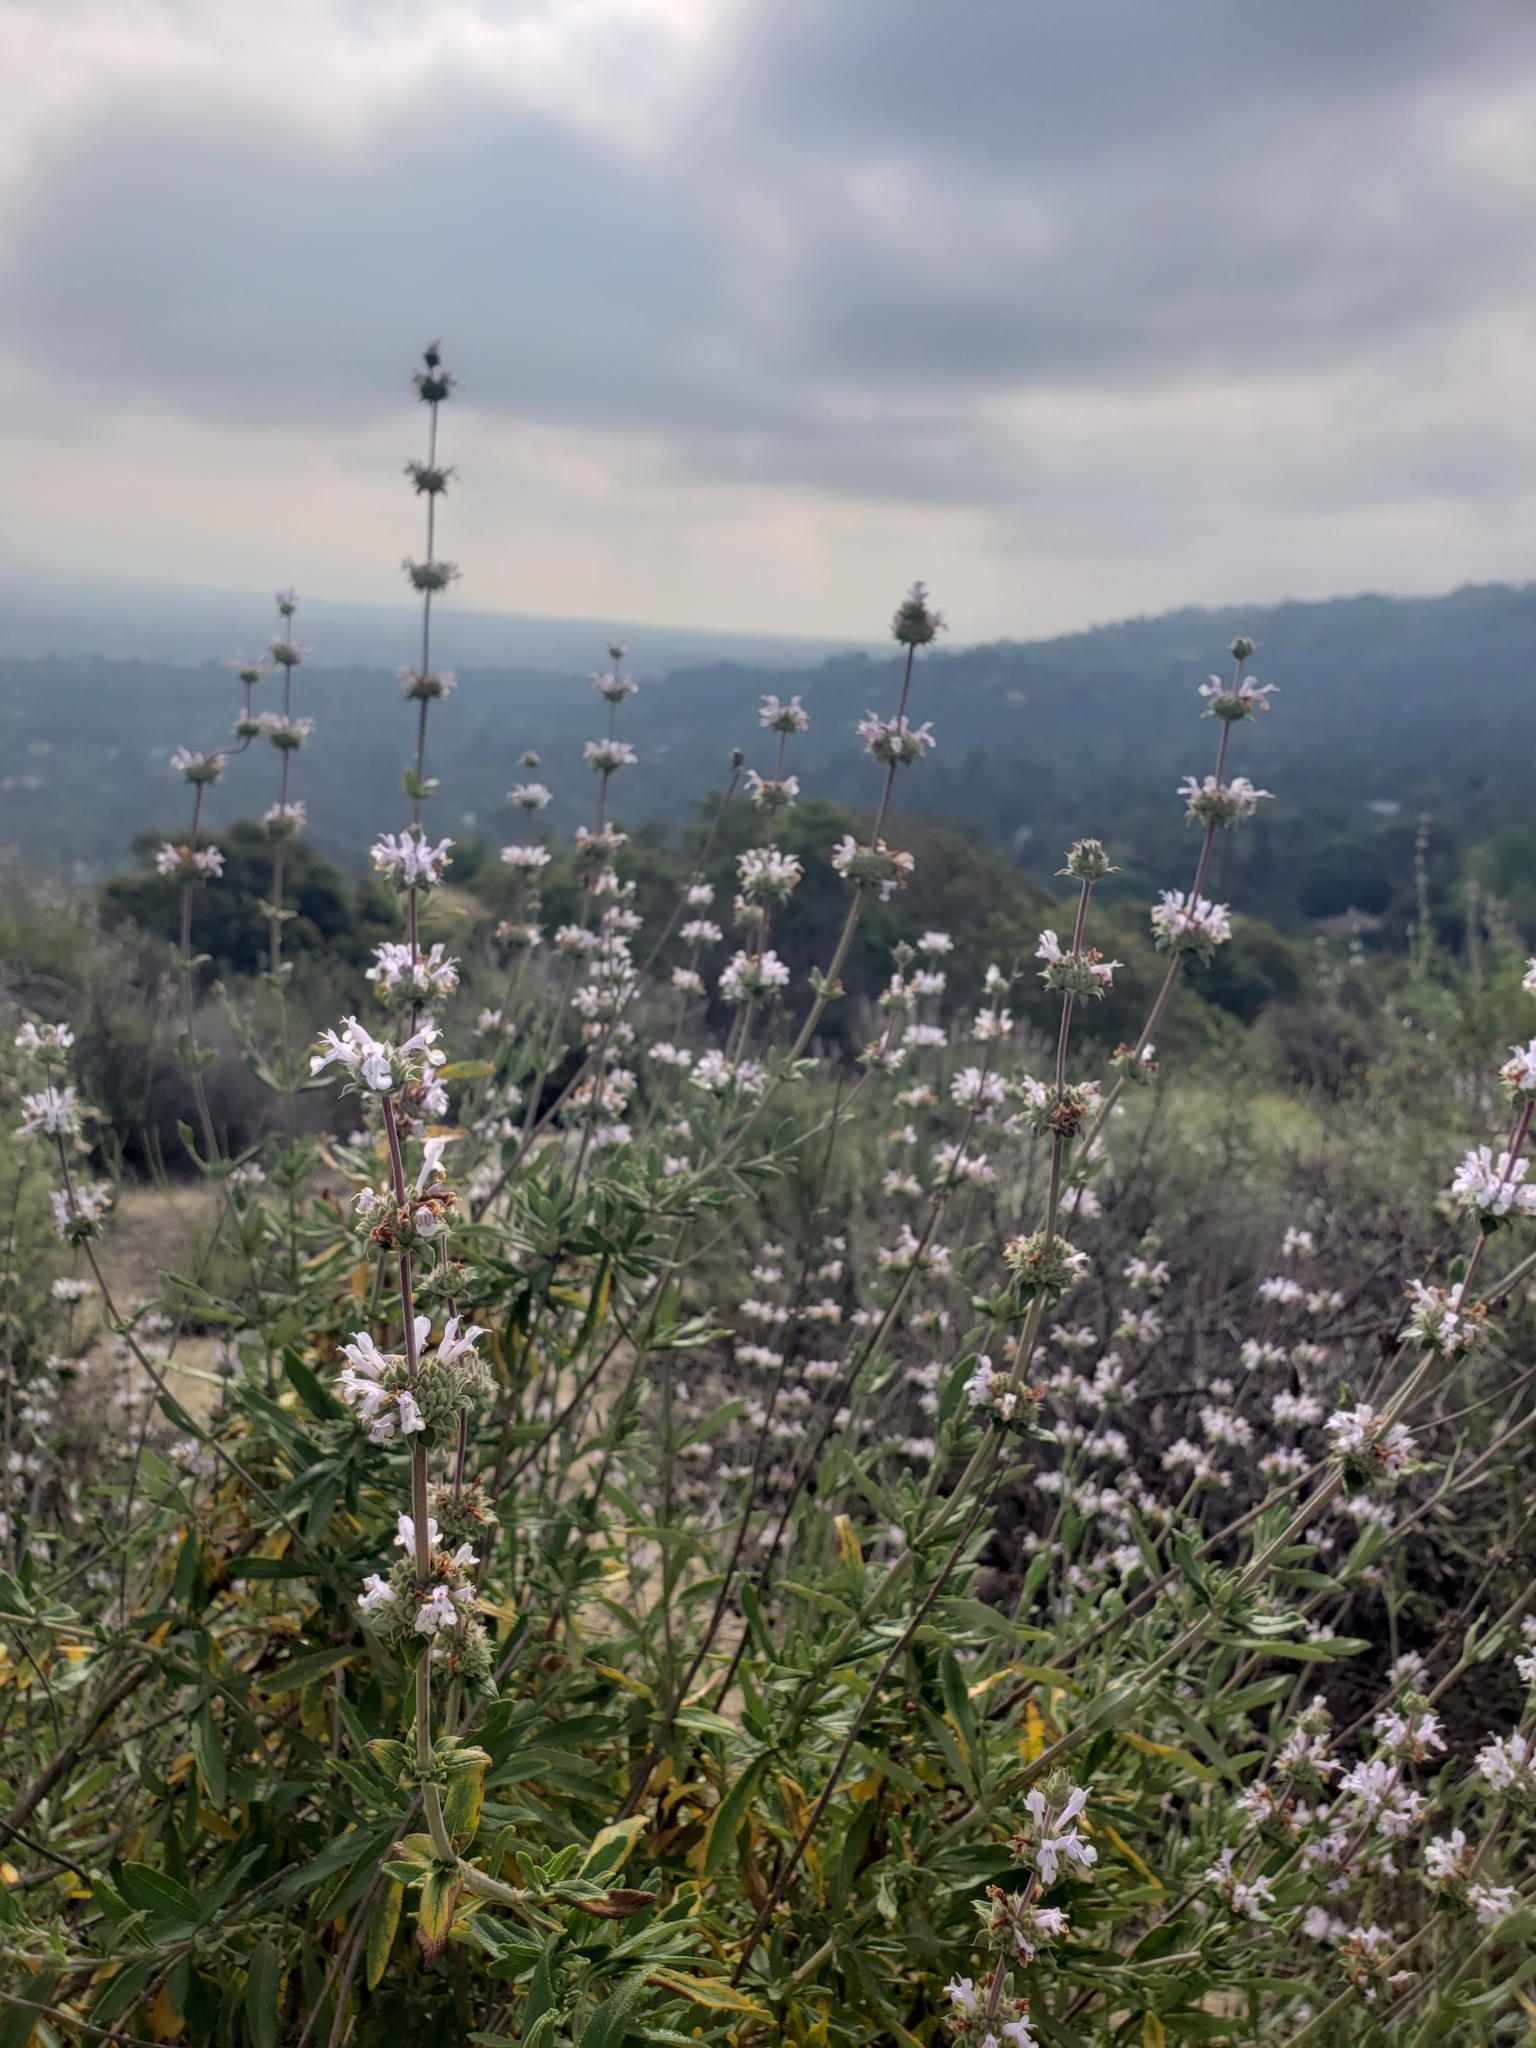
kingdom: Plantae
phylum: Tracheophyta
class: Magnoliopsida
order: Lamiales
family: Lamiaceae
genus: Salvia
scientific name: Salvia mellifera
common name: Black sage
